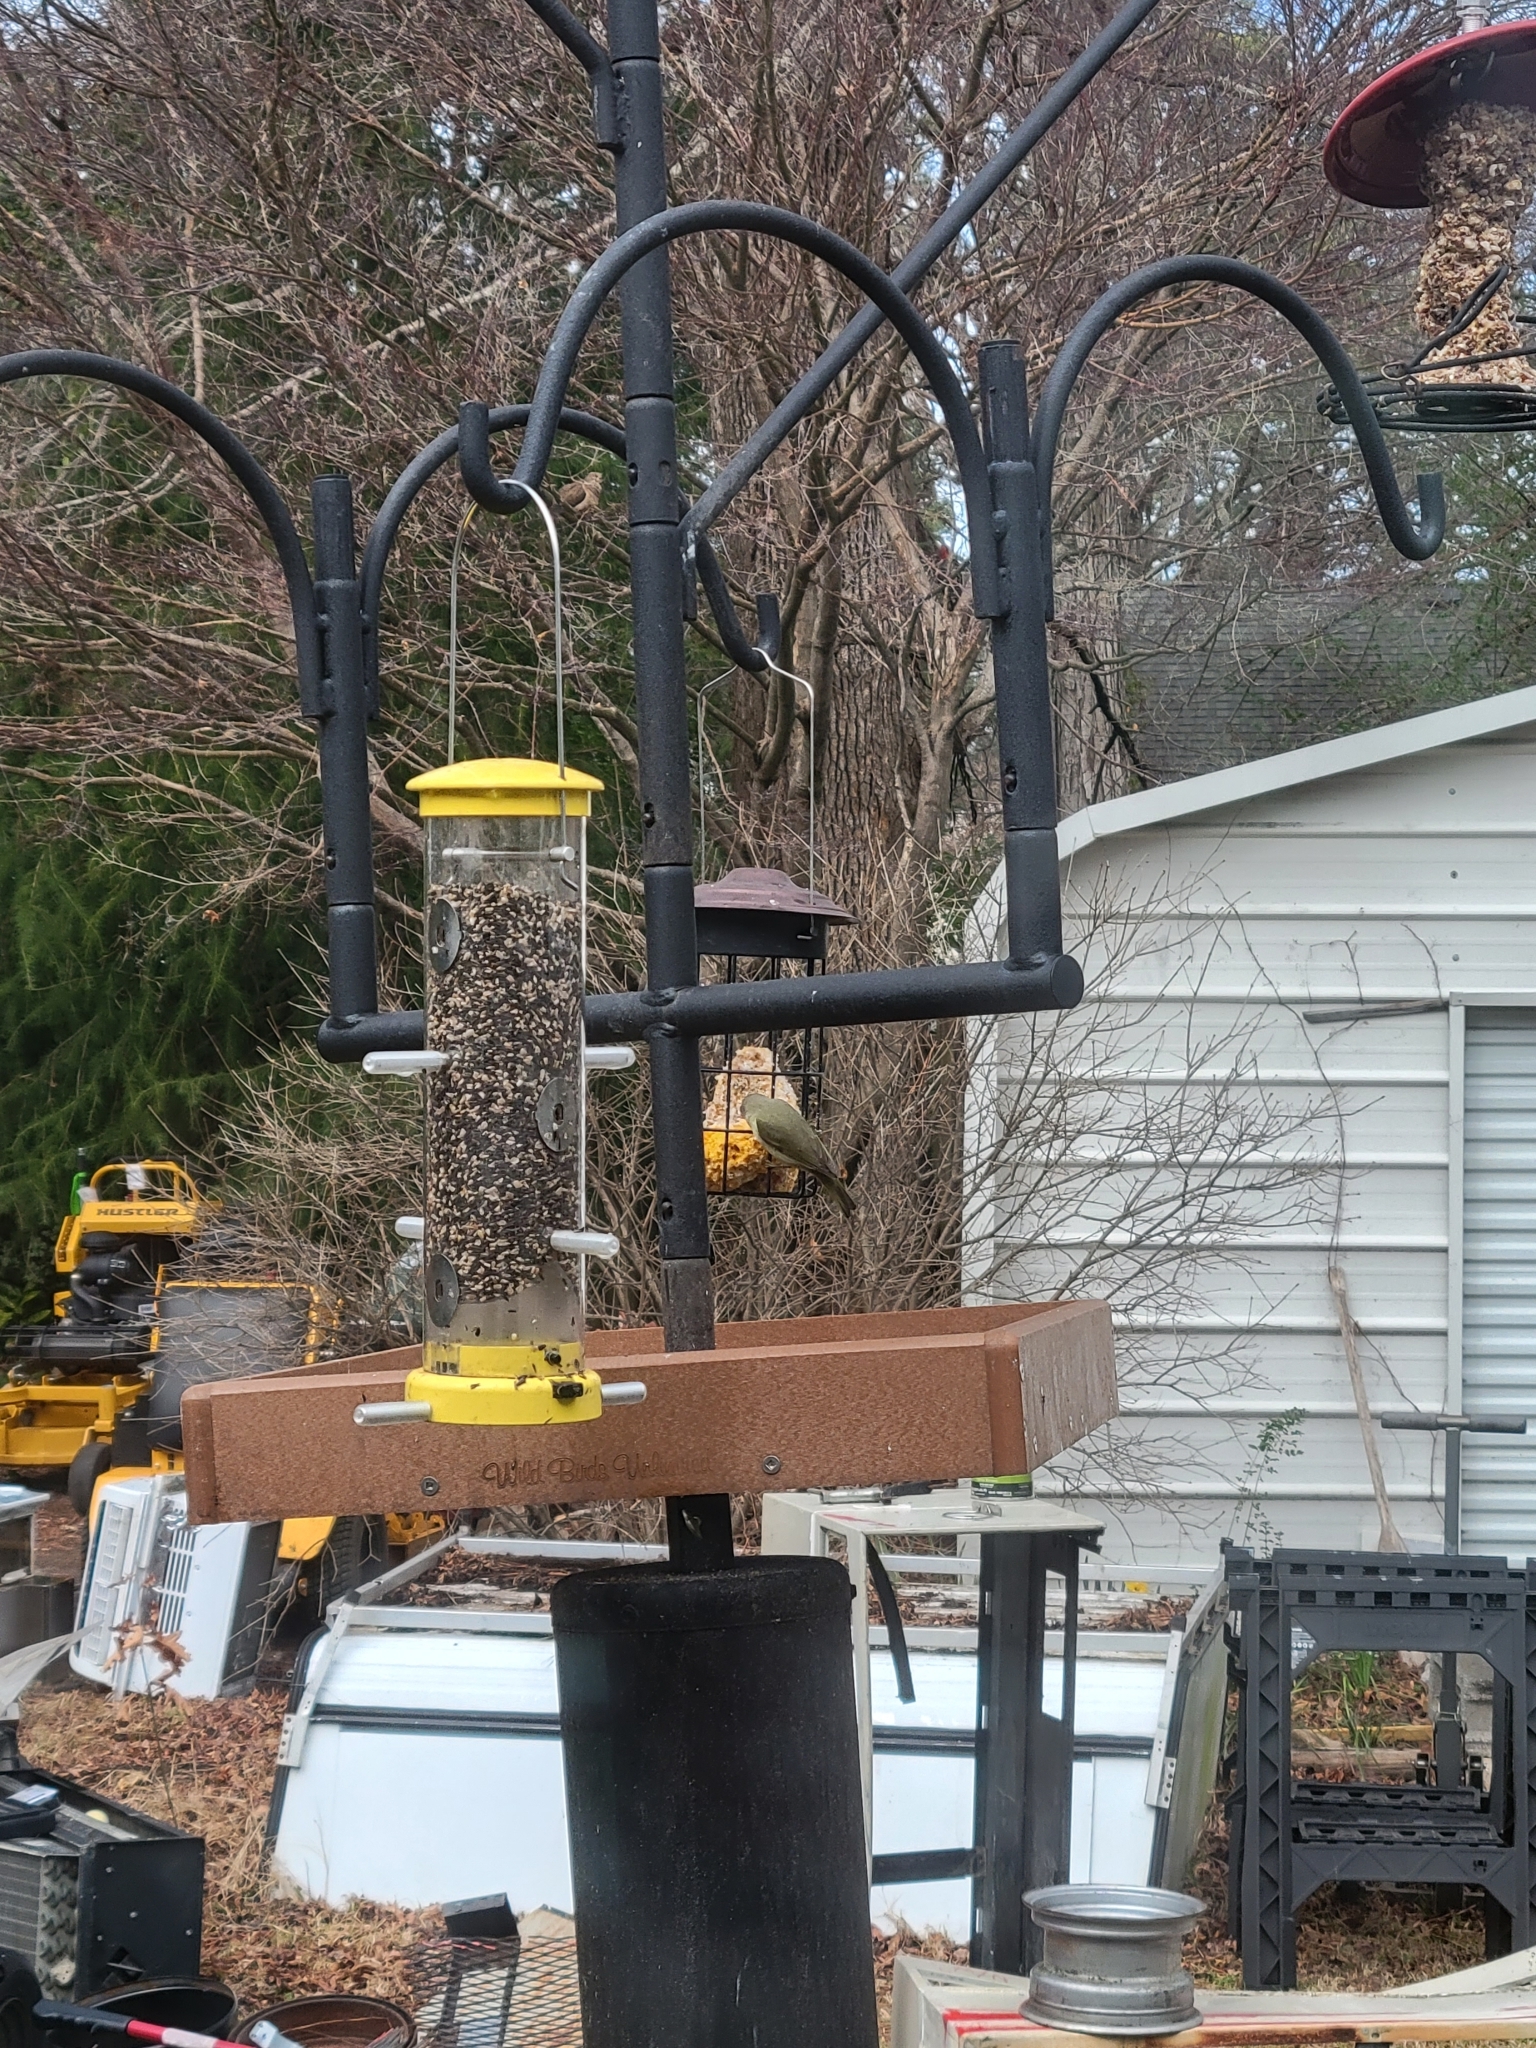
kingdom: Animalia
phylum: Chordata
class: Aves
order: Passeriformes
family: Parulidae
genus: Leiothlypis
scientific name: Leiothlypis celata
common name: Orange-crowned warbler
